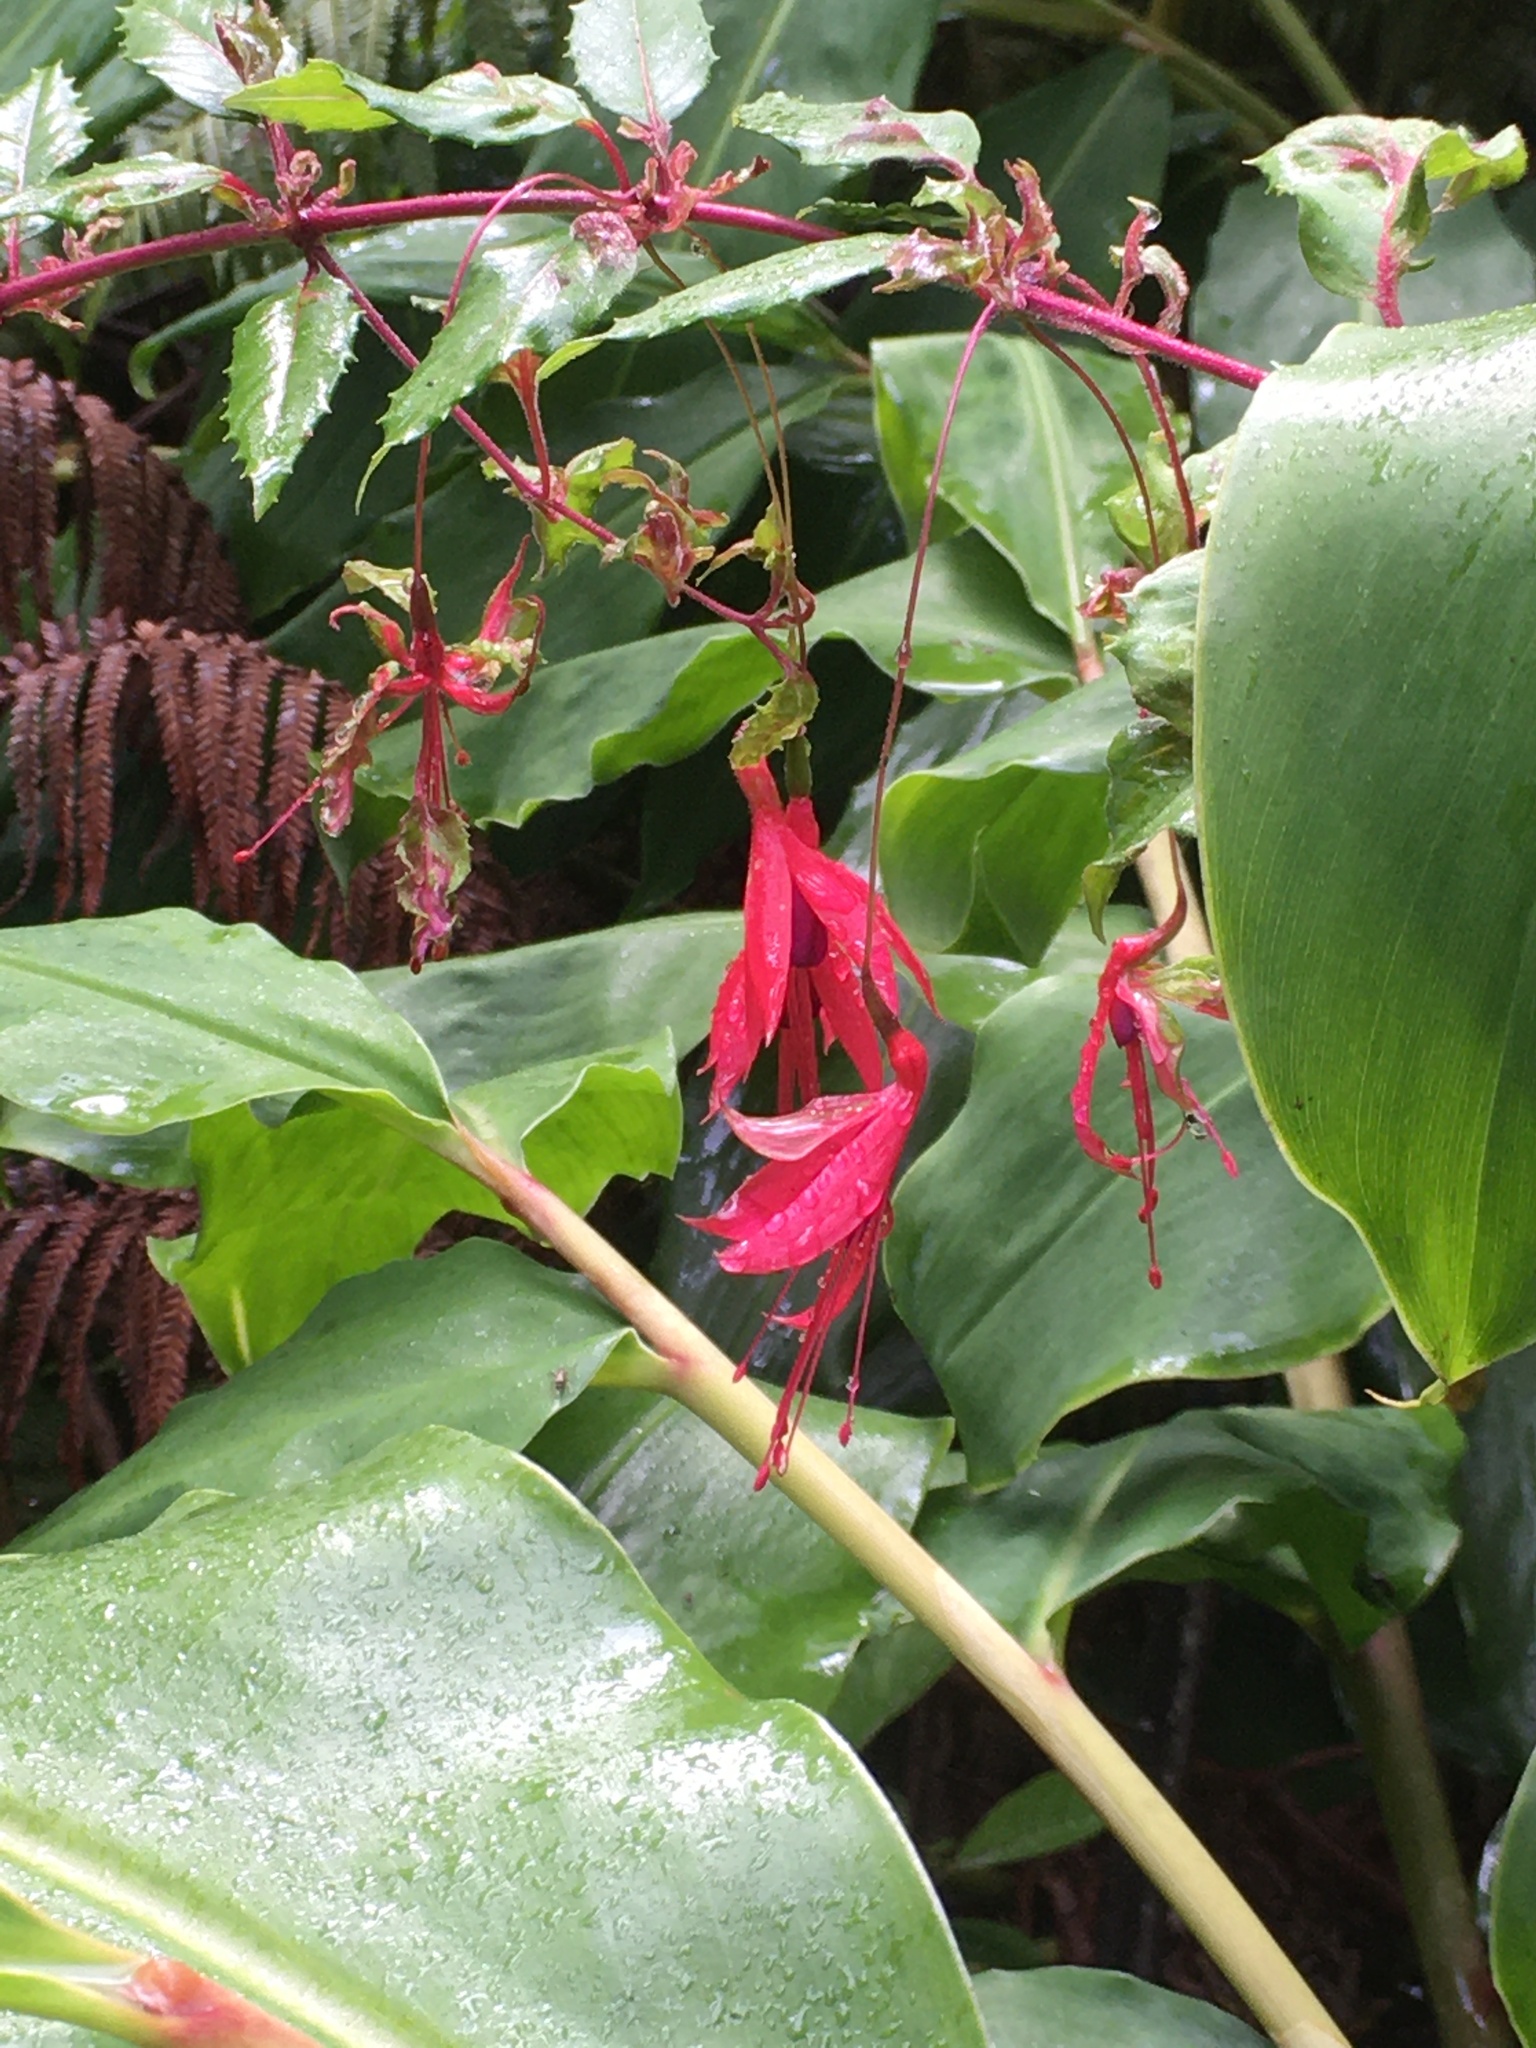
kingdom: Plantae
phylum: Tracheophyta
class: Magnoliopsida
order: Myrtales
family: Onagraceae
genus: Fuchsia
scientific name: Fuchsia magellanica
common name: Hardy fuchsia
